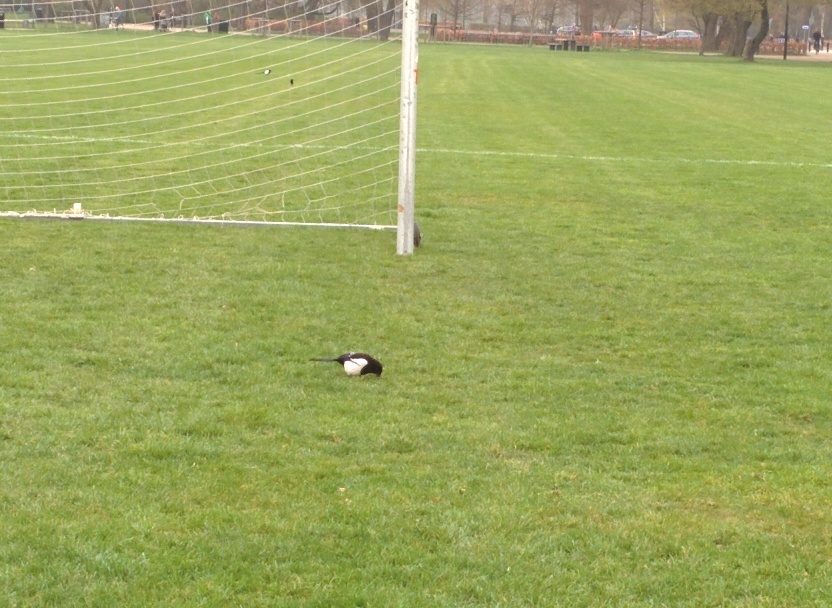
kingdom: Animalia
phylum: Chordata
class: Aves
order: Passeriformes
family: Corvidae
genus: Pica
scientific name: Pica pica
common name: Eurasian magpie
